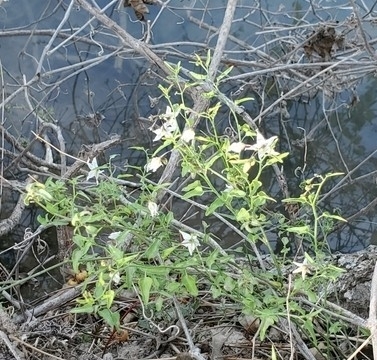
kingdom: Plantae
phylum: Tracheophyta
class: Magnoliopsida
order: Solanales
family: Solanaceae
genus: Solanum
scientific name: Solanum triquetrum
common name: Texas nightshade
